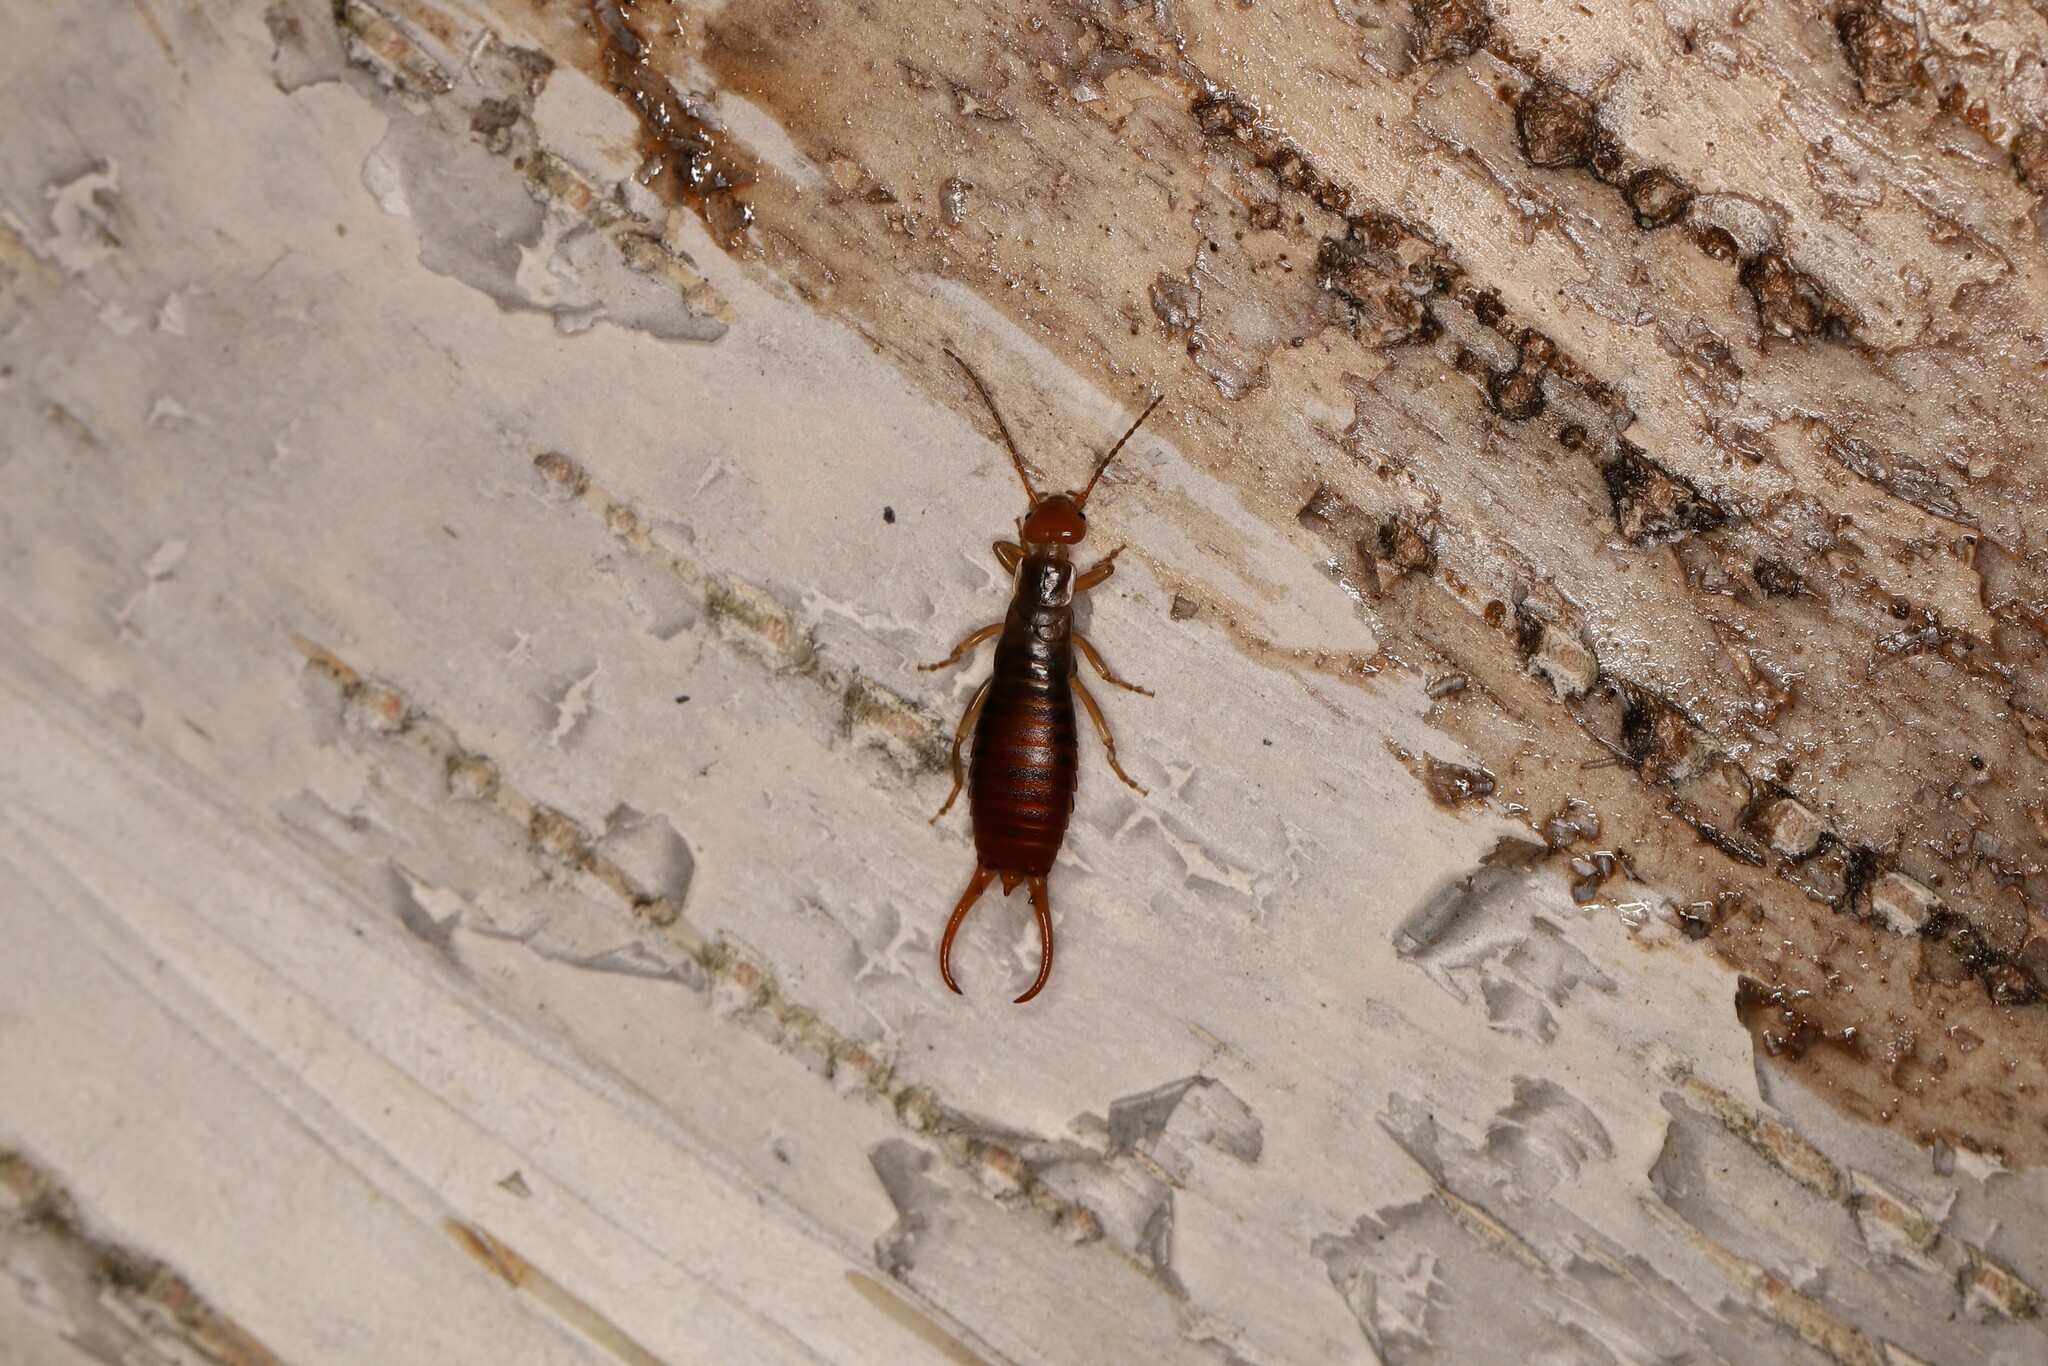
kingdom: Animalia
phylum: Arthropoda
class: Insecta
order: Dermaptera
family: Forficulidae
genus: Chelidurella
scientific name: Chelidurella acanthopygia
